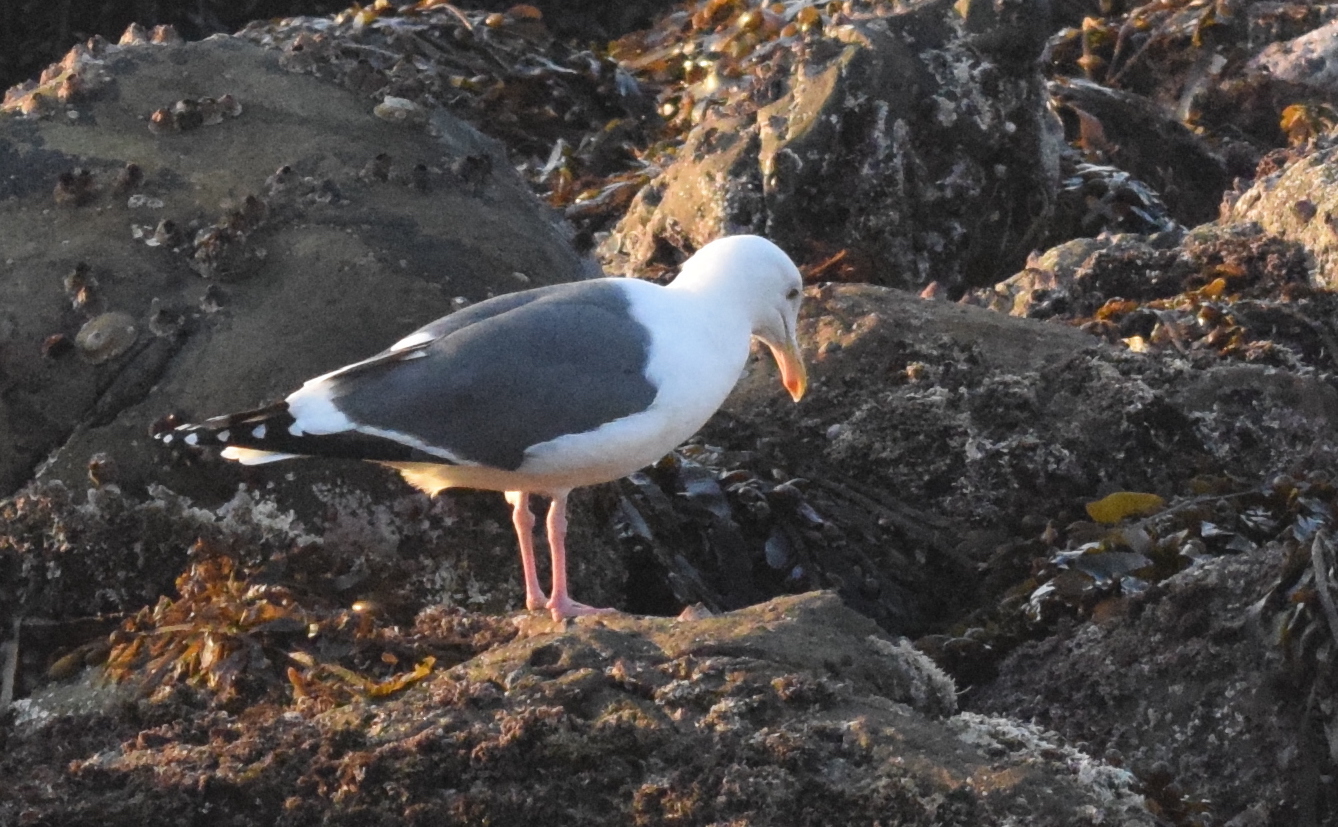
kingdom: Animalia
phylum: Chordata
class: Aves
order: Charadriiformes
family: Laridae
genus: Larus
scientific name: Larus occidentalis
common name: Western gull
